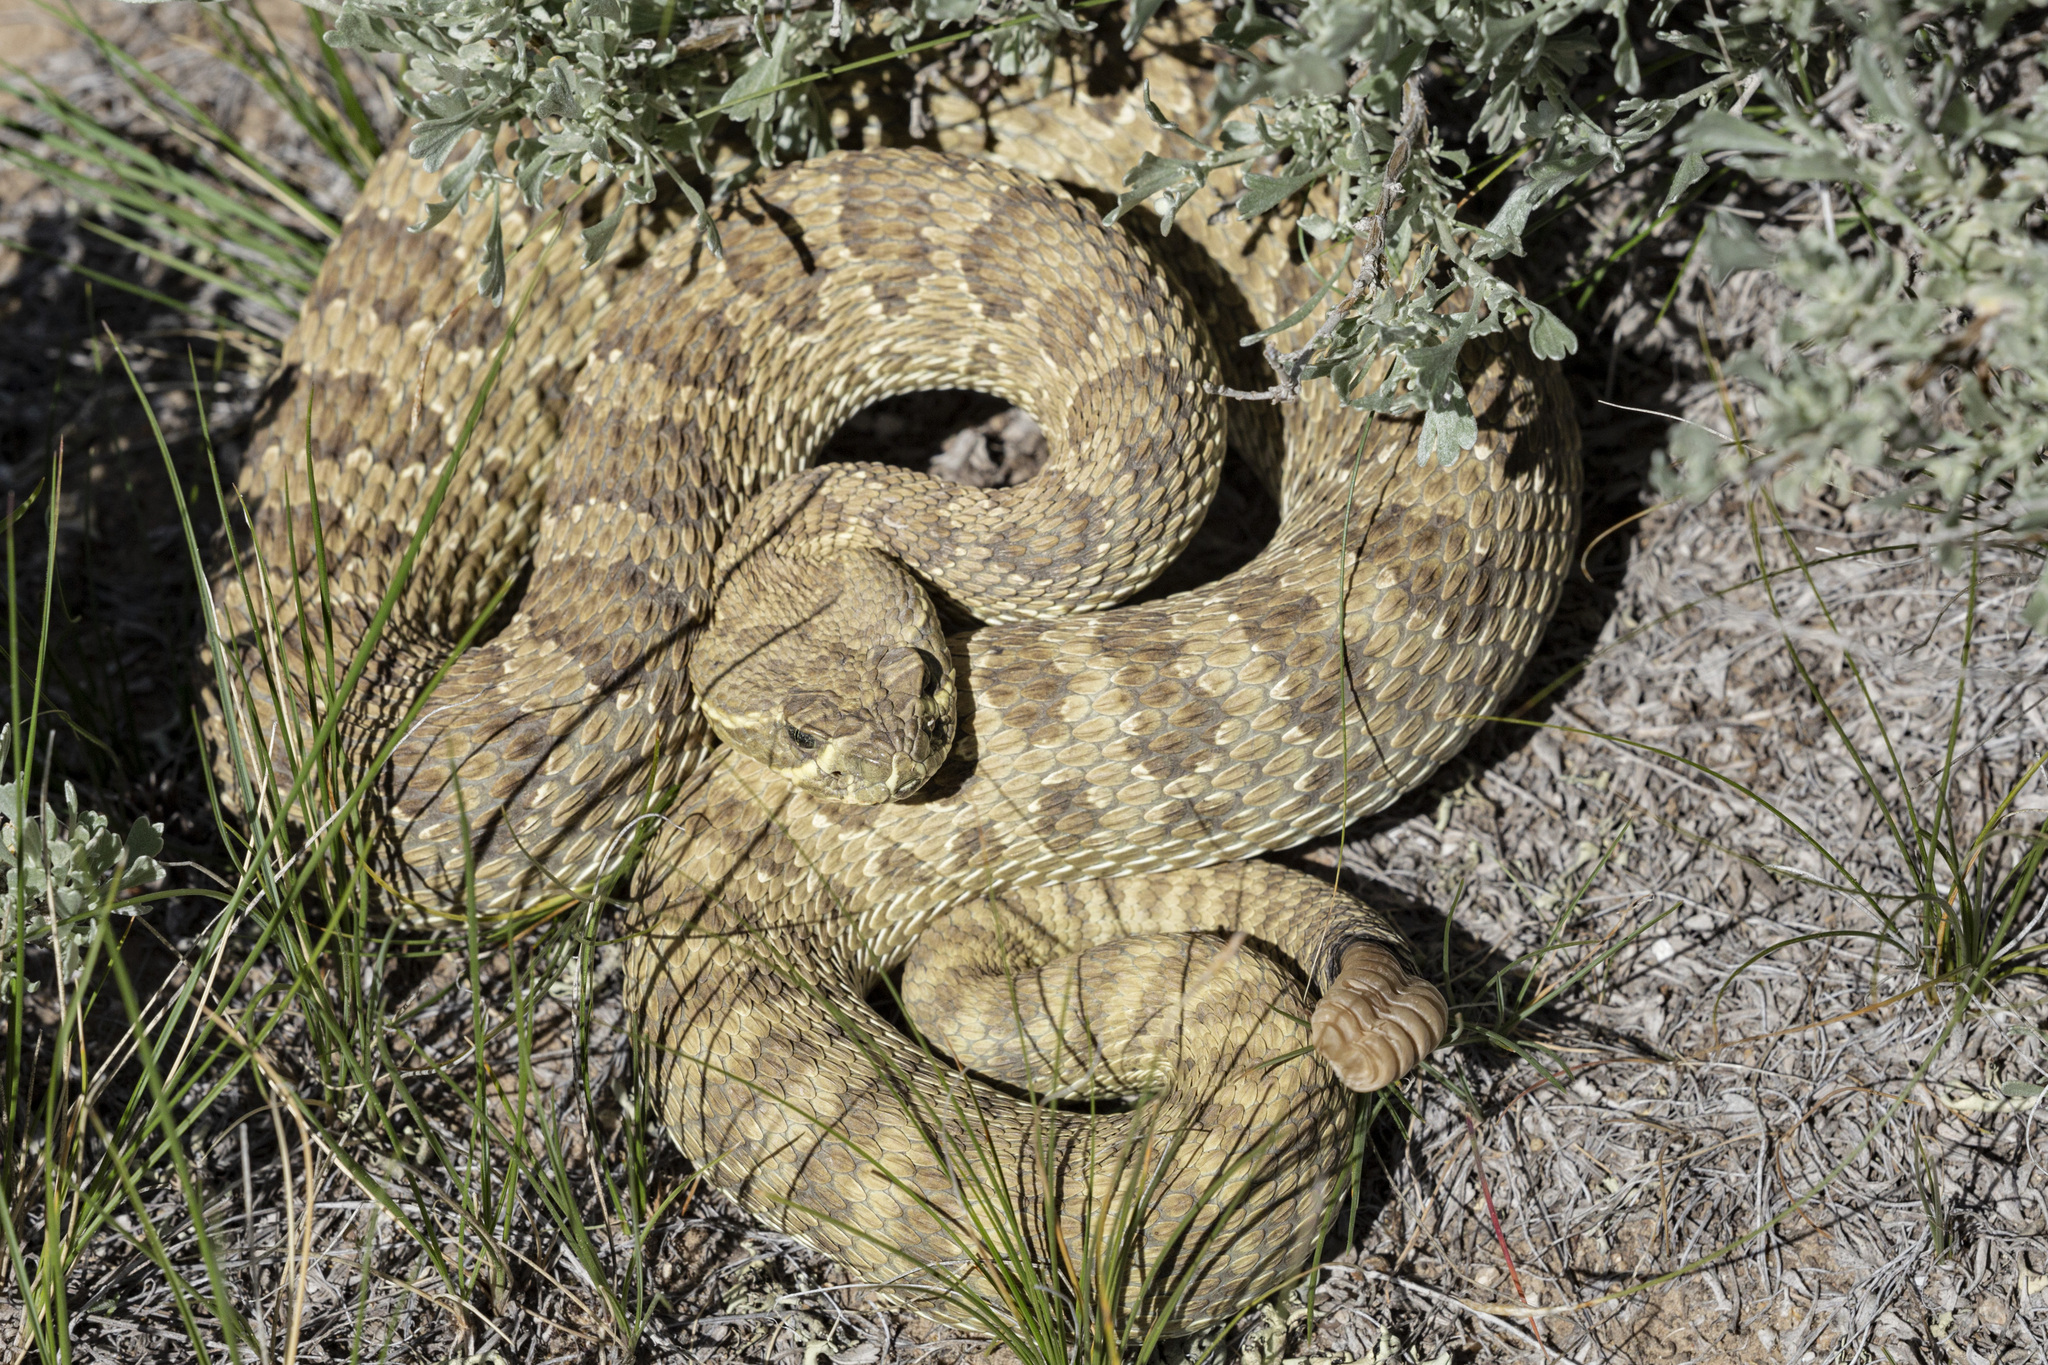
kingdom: Animalia
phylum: Chordata
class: Squamata
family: Viperidae
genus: Crotalus
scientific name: Crotalus viridis
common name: Prairie rattlesnake
